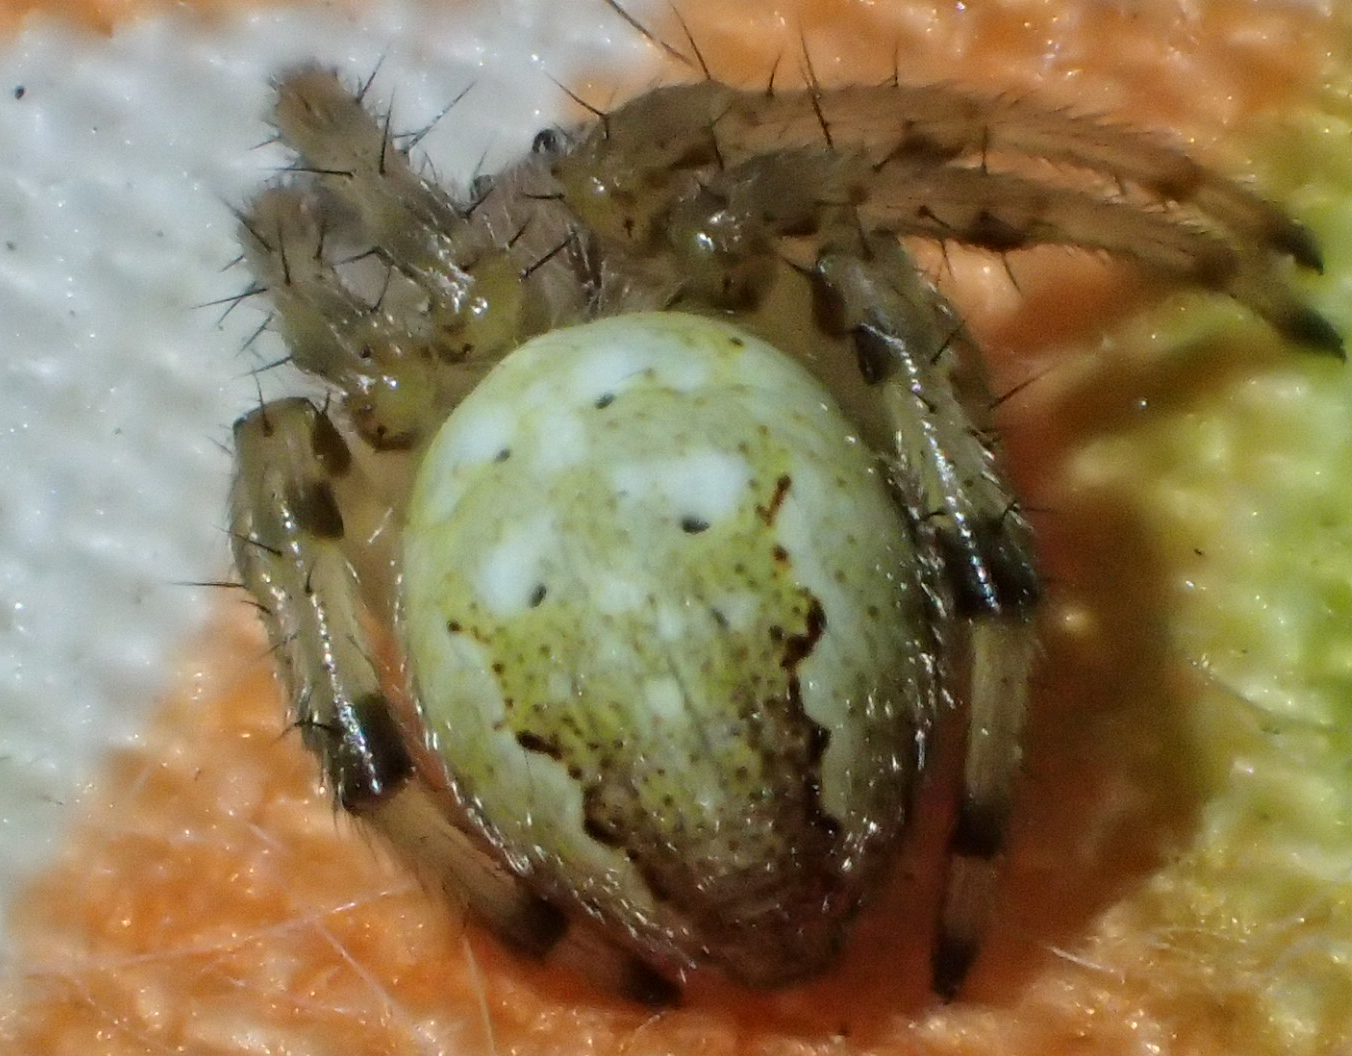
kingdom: Animalia
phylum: Arthropoda
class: Arachnida
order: Araneae
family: Araneidae
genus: Araneus
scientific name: Araneus trifolium
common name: Shamrock orbweaver
